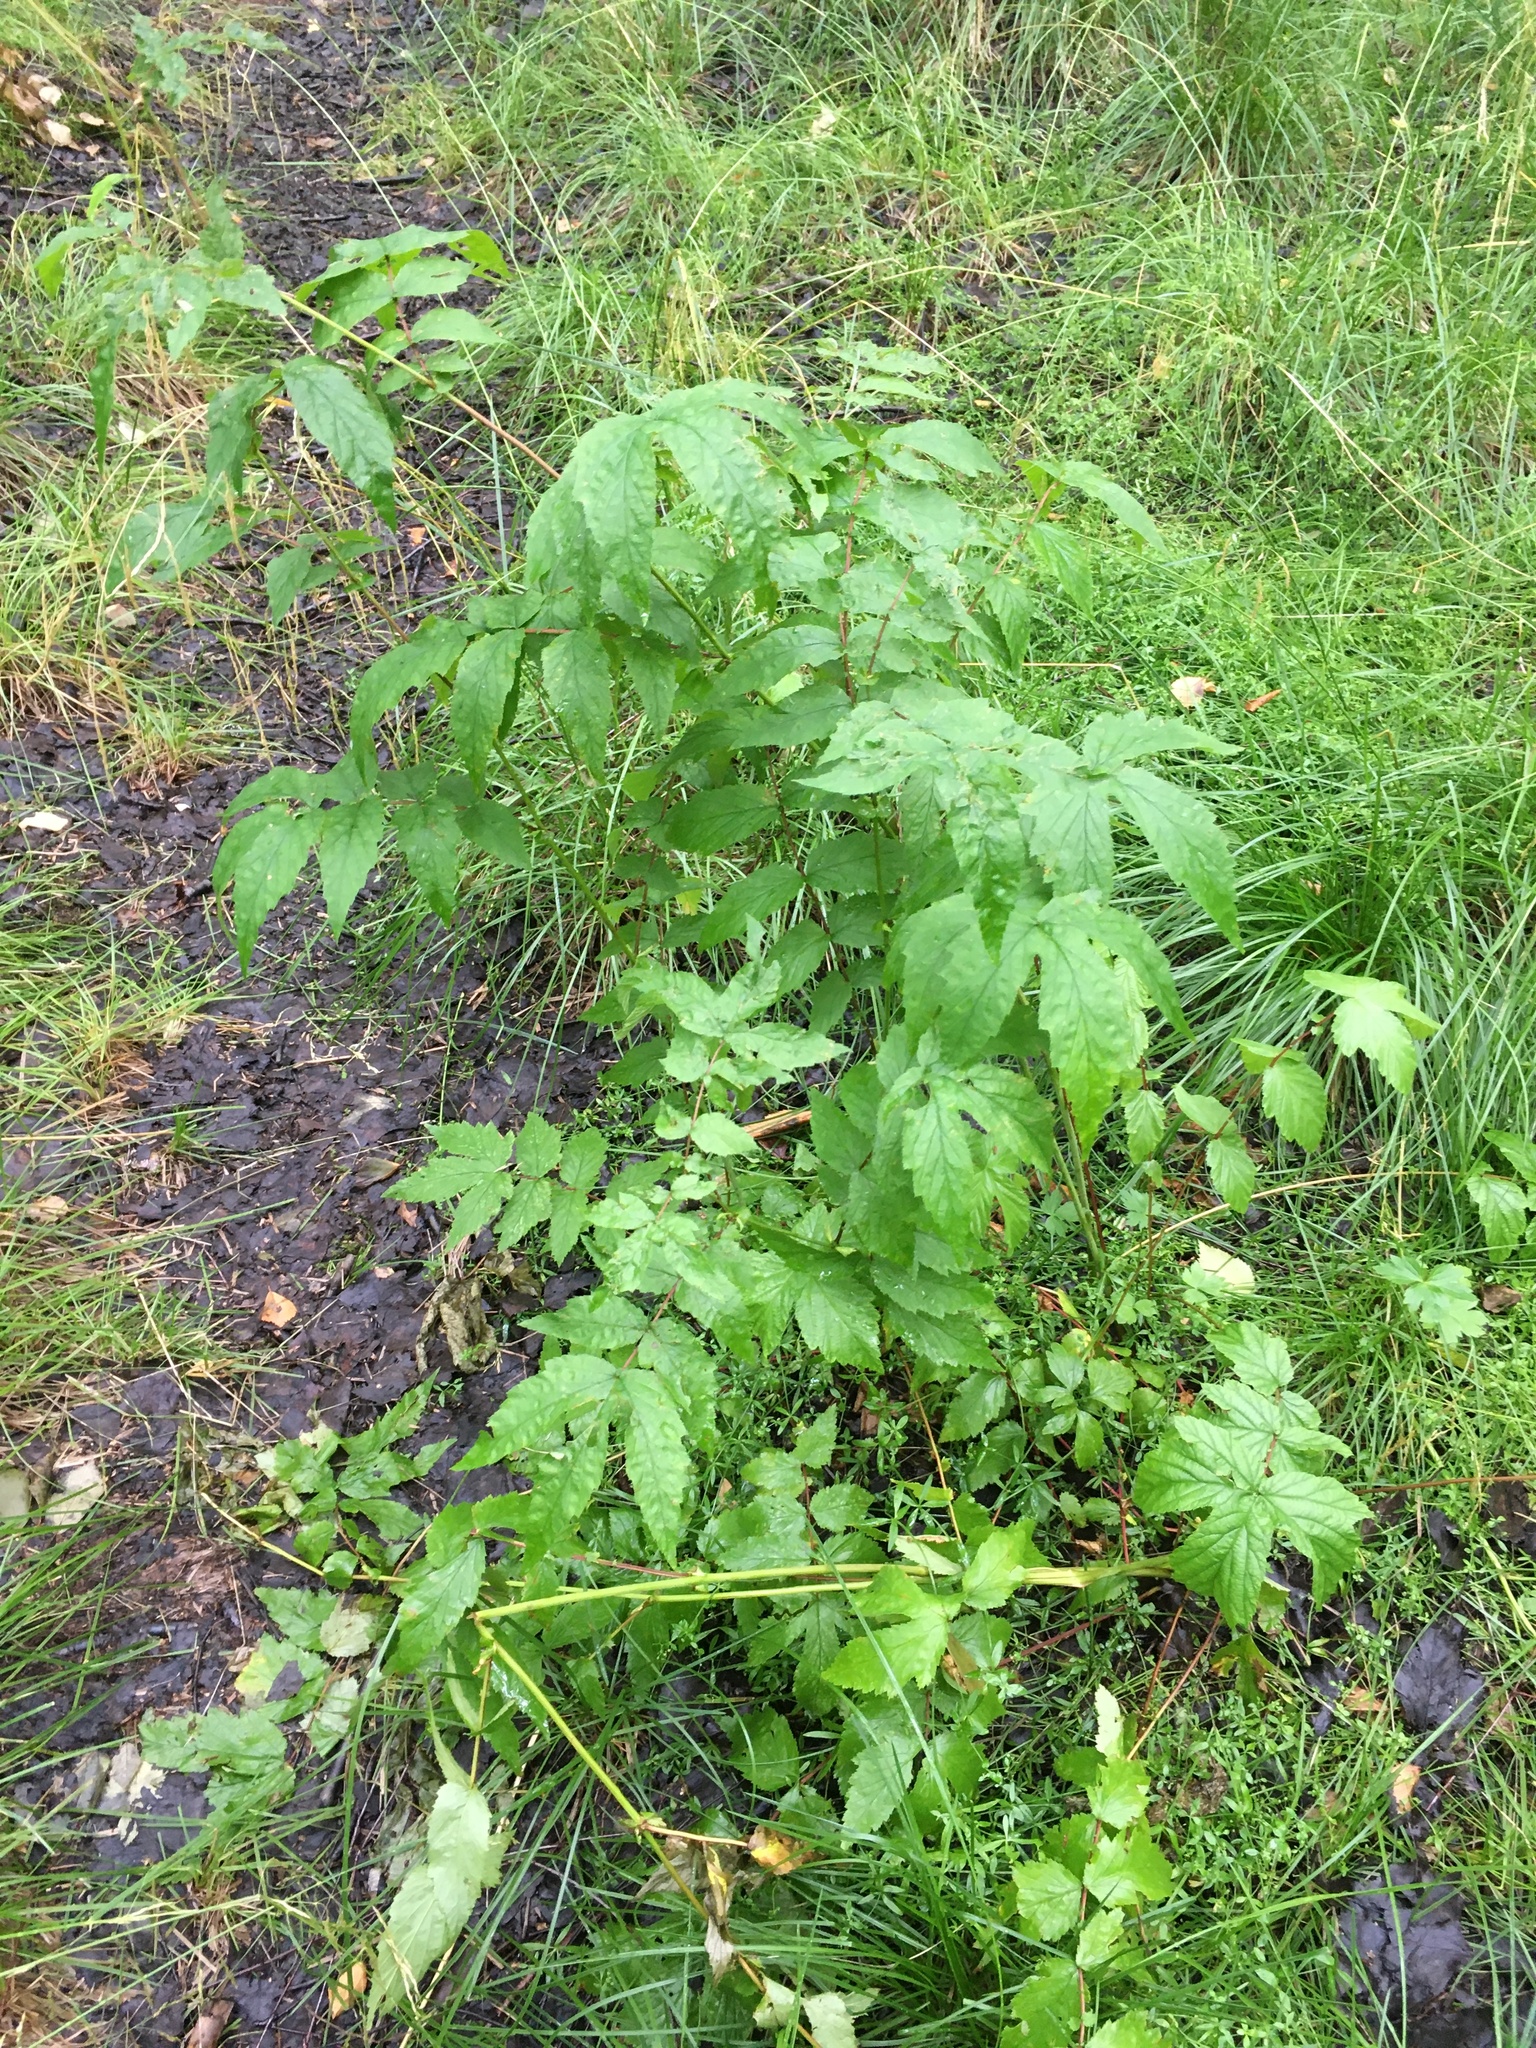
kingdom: Plantae
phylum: Tracheophyta
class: Magnoliopsida
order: Rosales
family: Rosaceae
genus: Filipendula
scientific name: Filipendula ulmaria
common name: Meadowsweet
